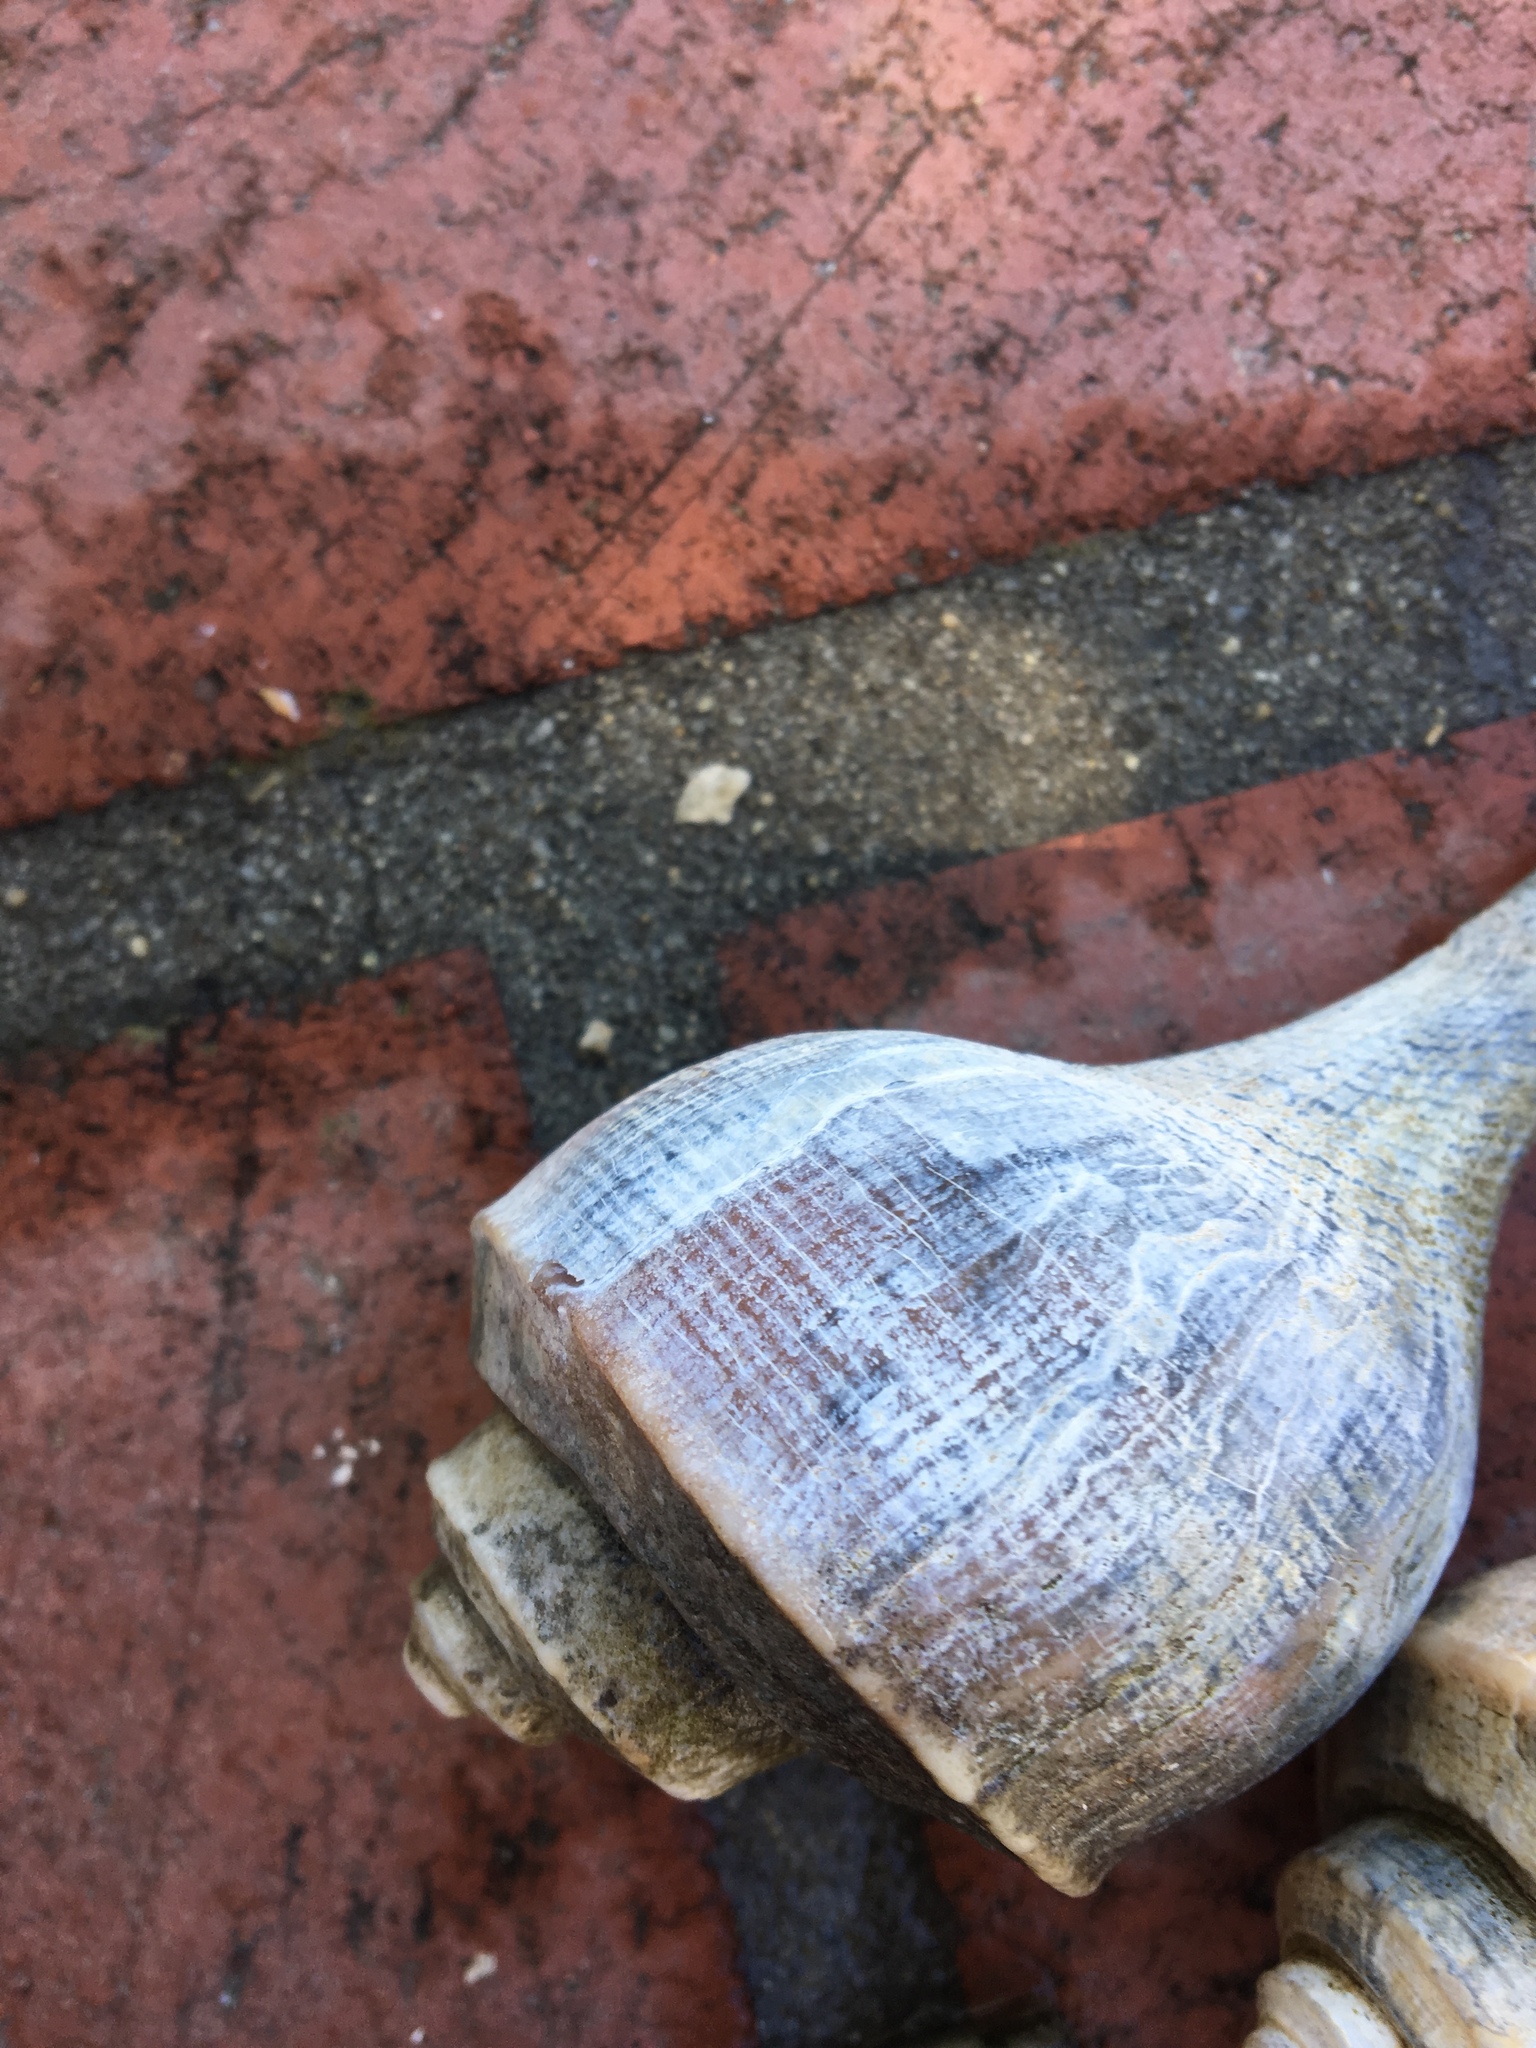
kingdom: Animalia
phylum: Mollusca
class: Gastropoda
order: Neogastropoda
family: Busyconidae
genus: Busycotypus
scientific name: Busycotypus canaliculatus
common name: Channeled whelk
